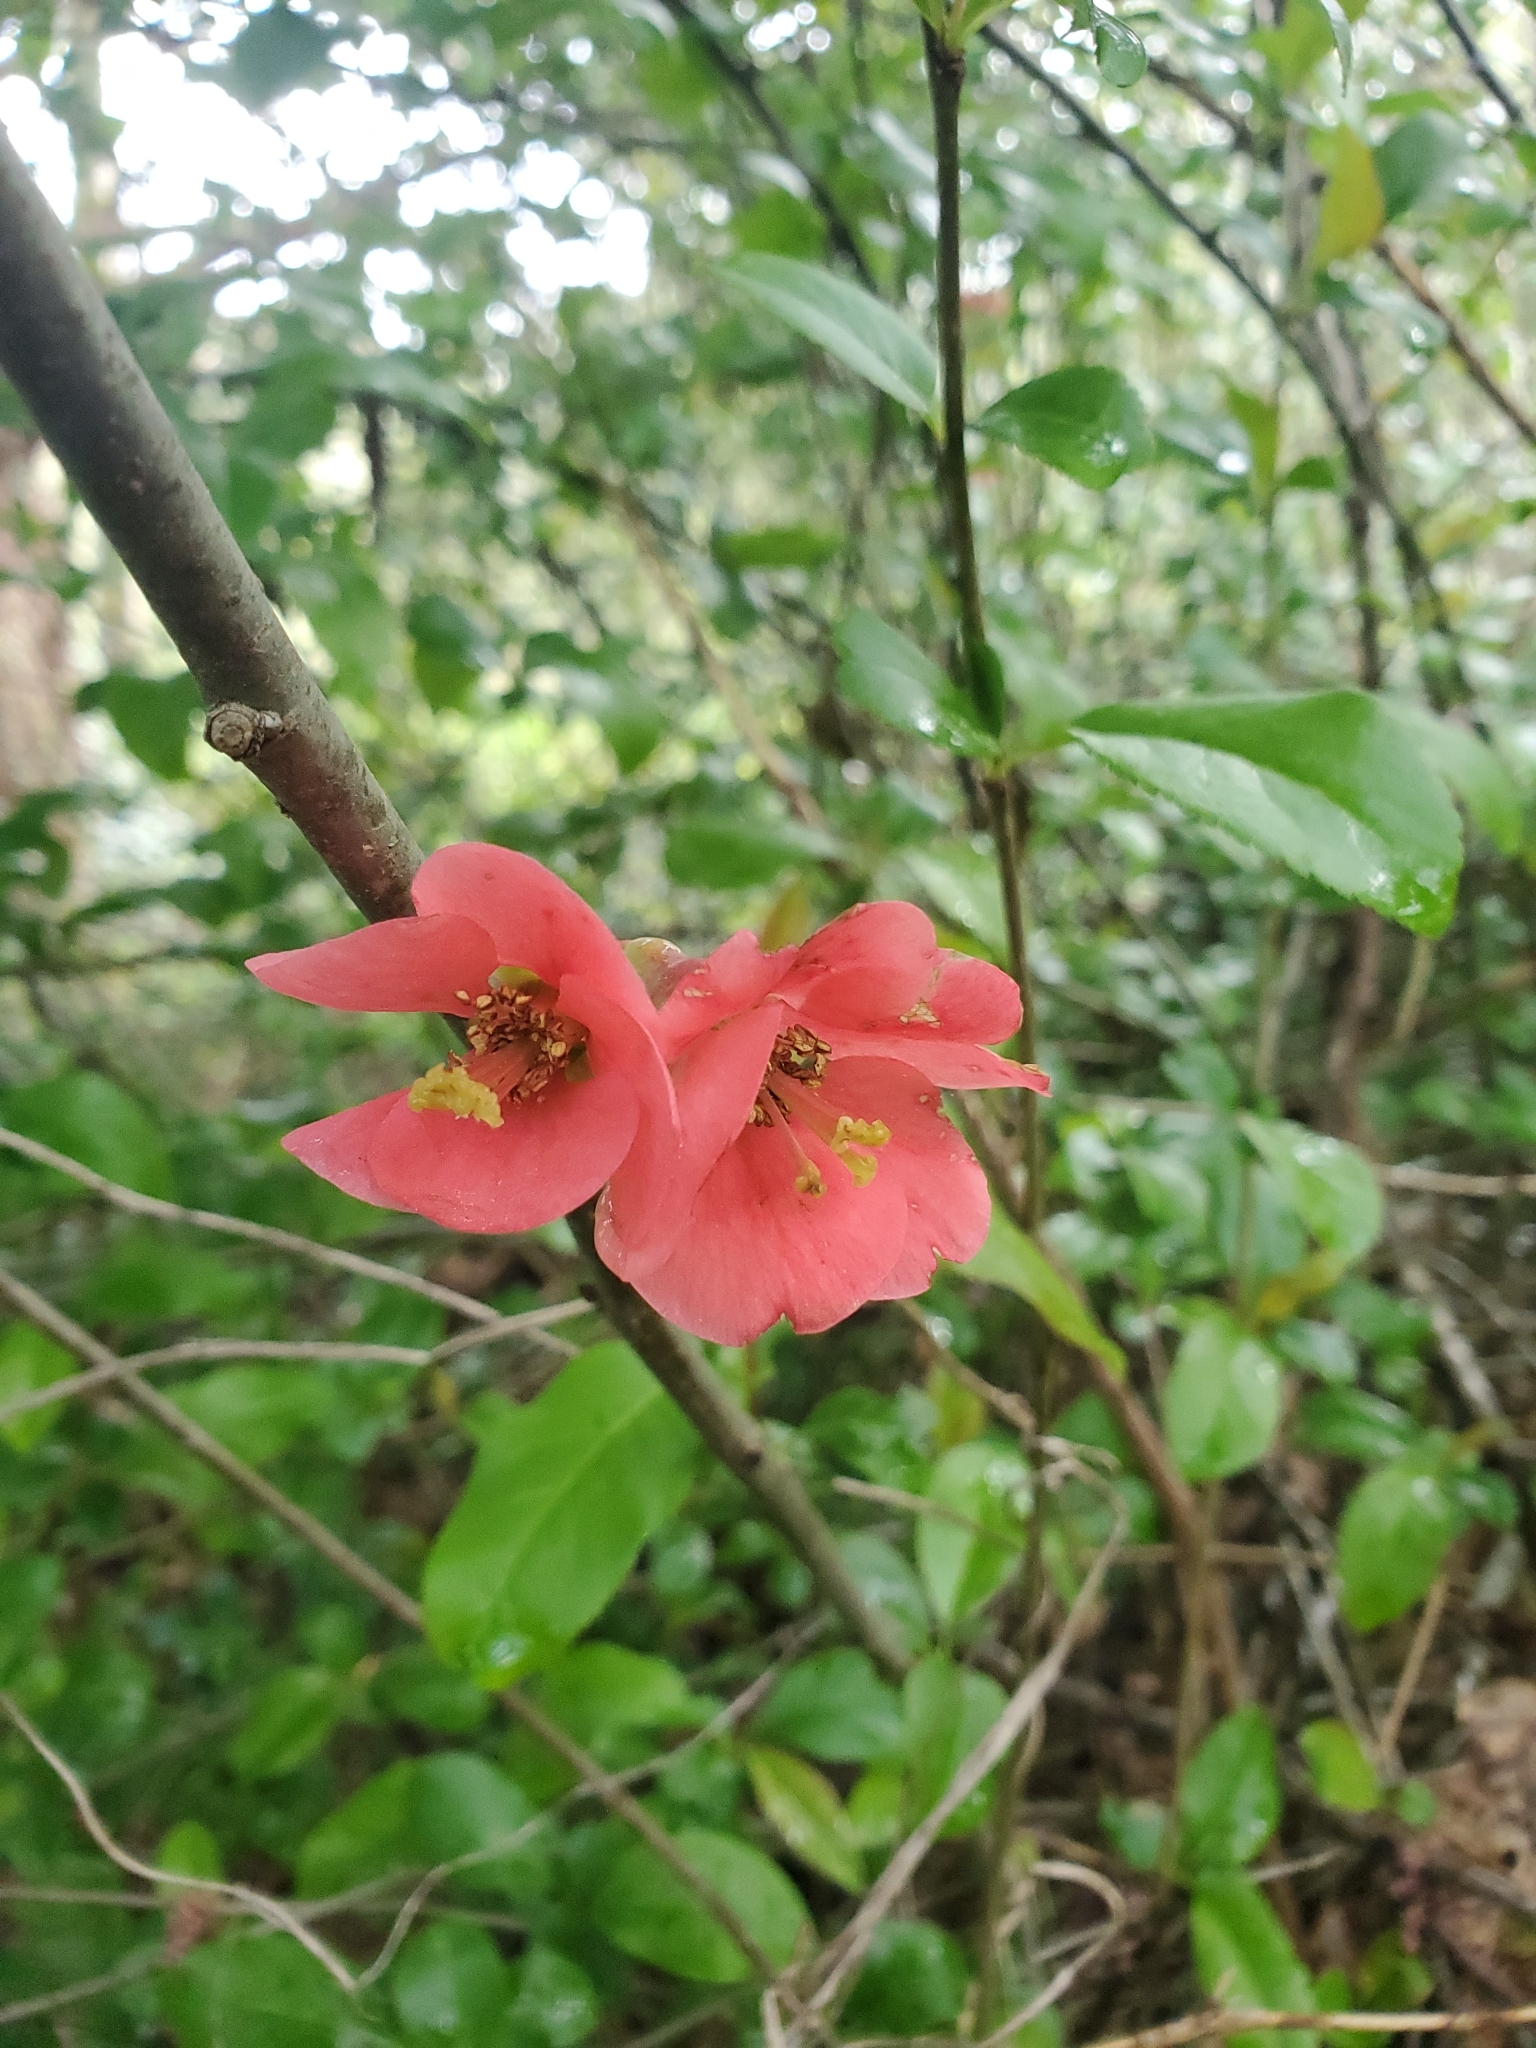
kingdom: Plantae
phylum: Tracheophyta
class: Magnoliopsida
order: Rosales
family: Rosaceae
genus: Chaenomeles
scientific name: Chaenomeles speciosa
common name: Japanese quince
